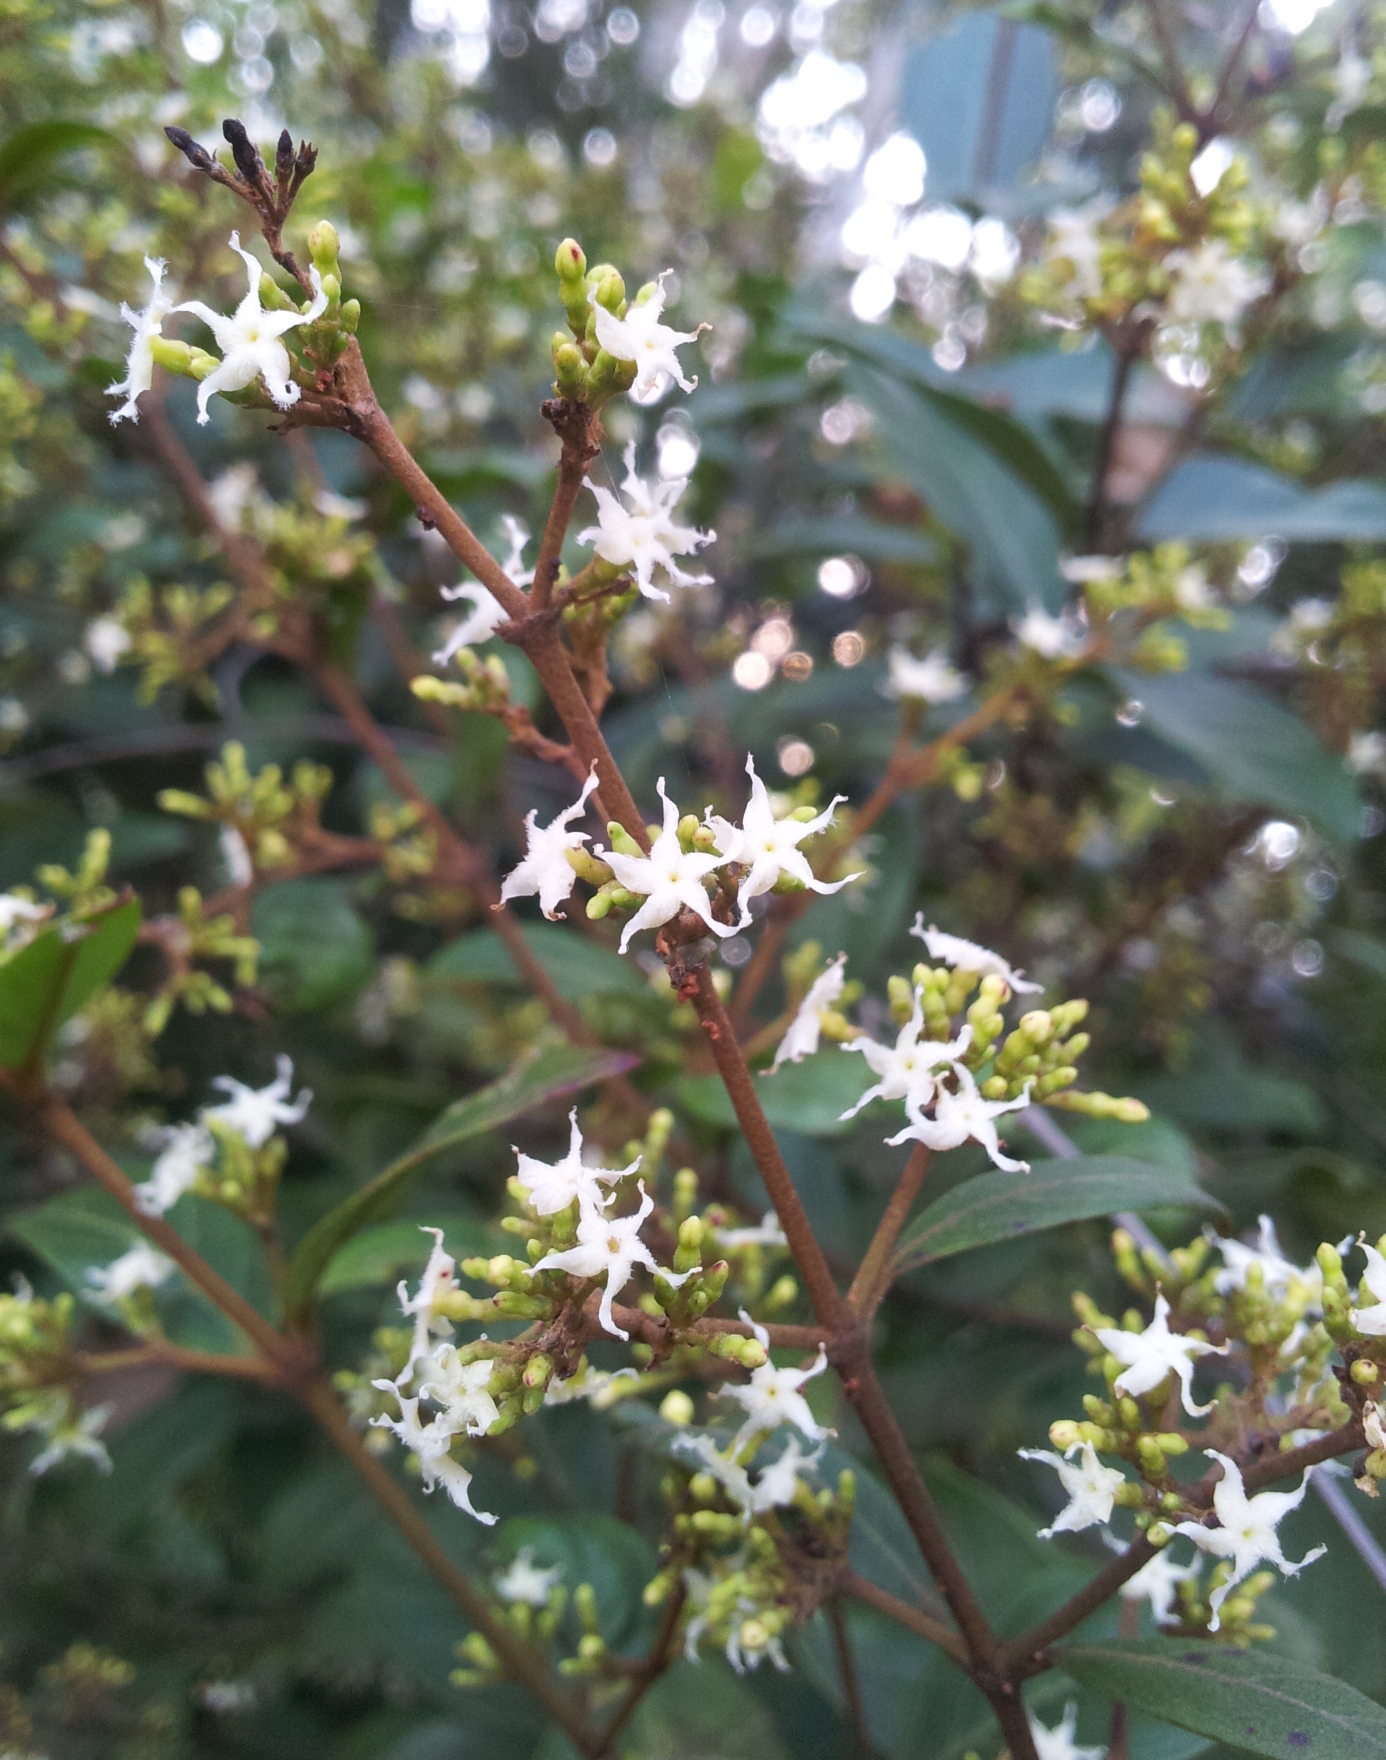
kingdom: Plantae
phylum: Tracheophyta
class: Magnoliopsida
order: Gentianales
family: Apocynaceae
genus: Ichnocarpus
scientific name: Ichnocarpus frutescens
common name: Ichnocarpus
